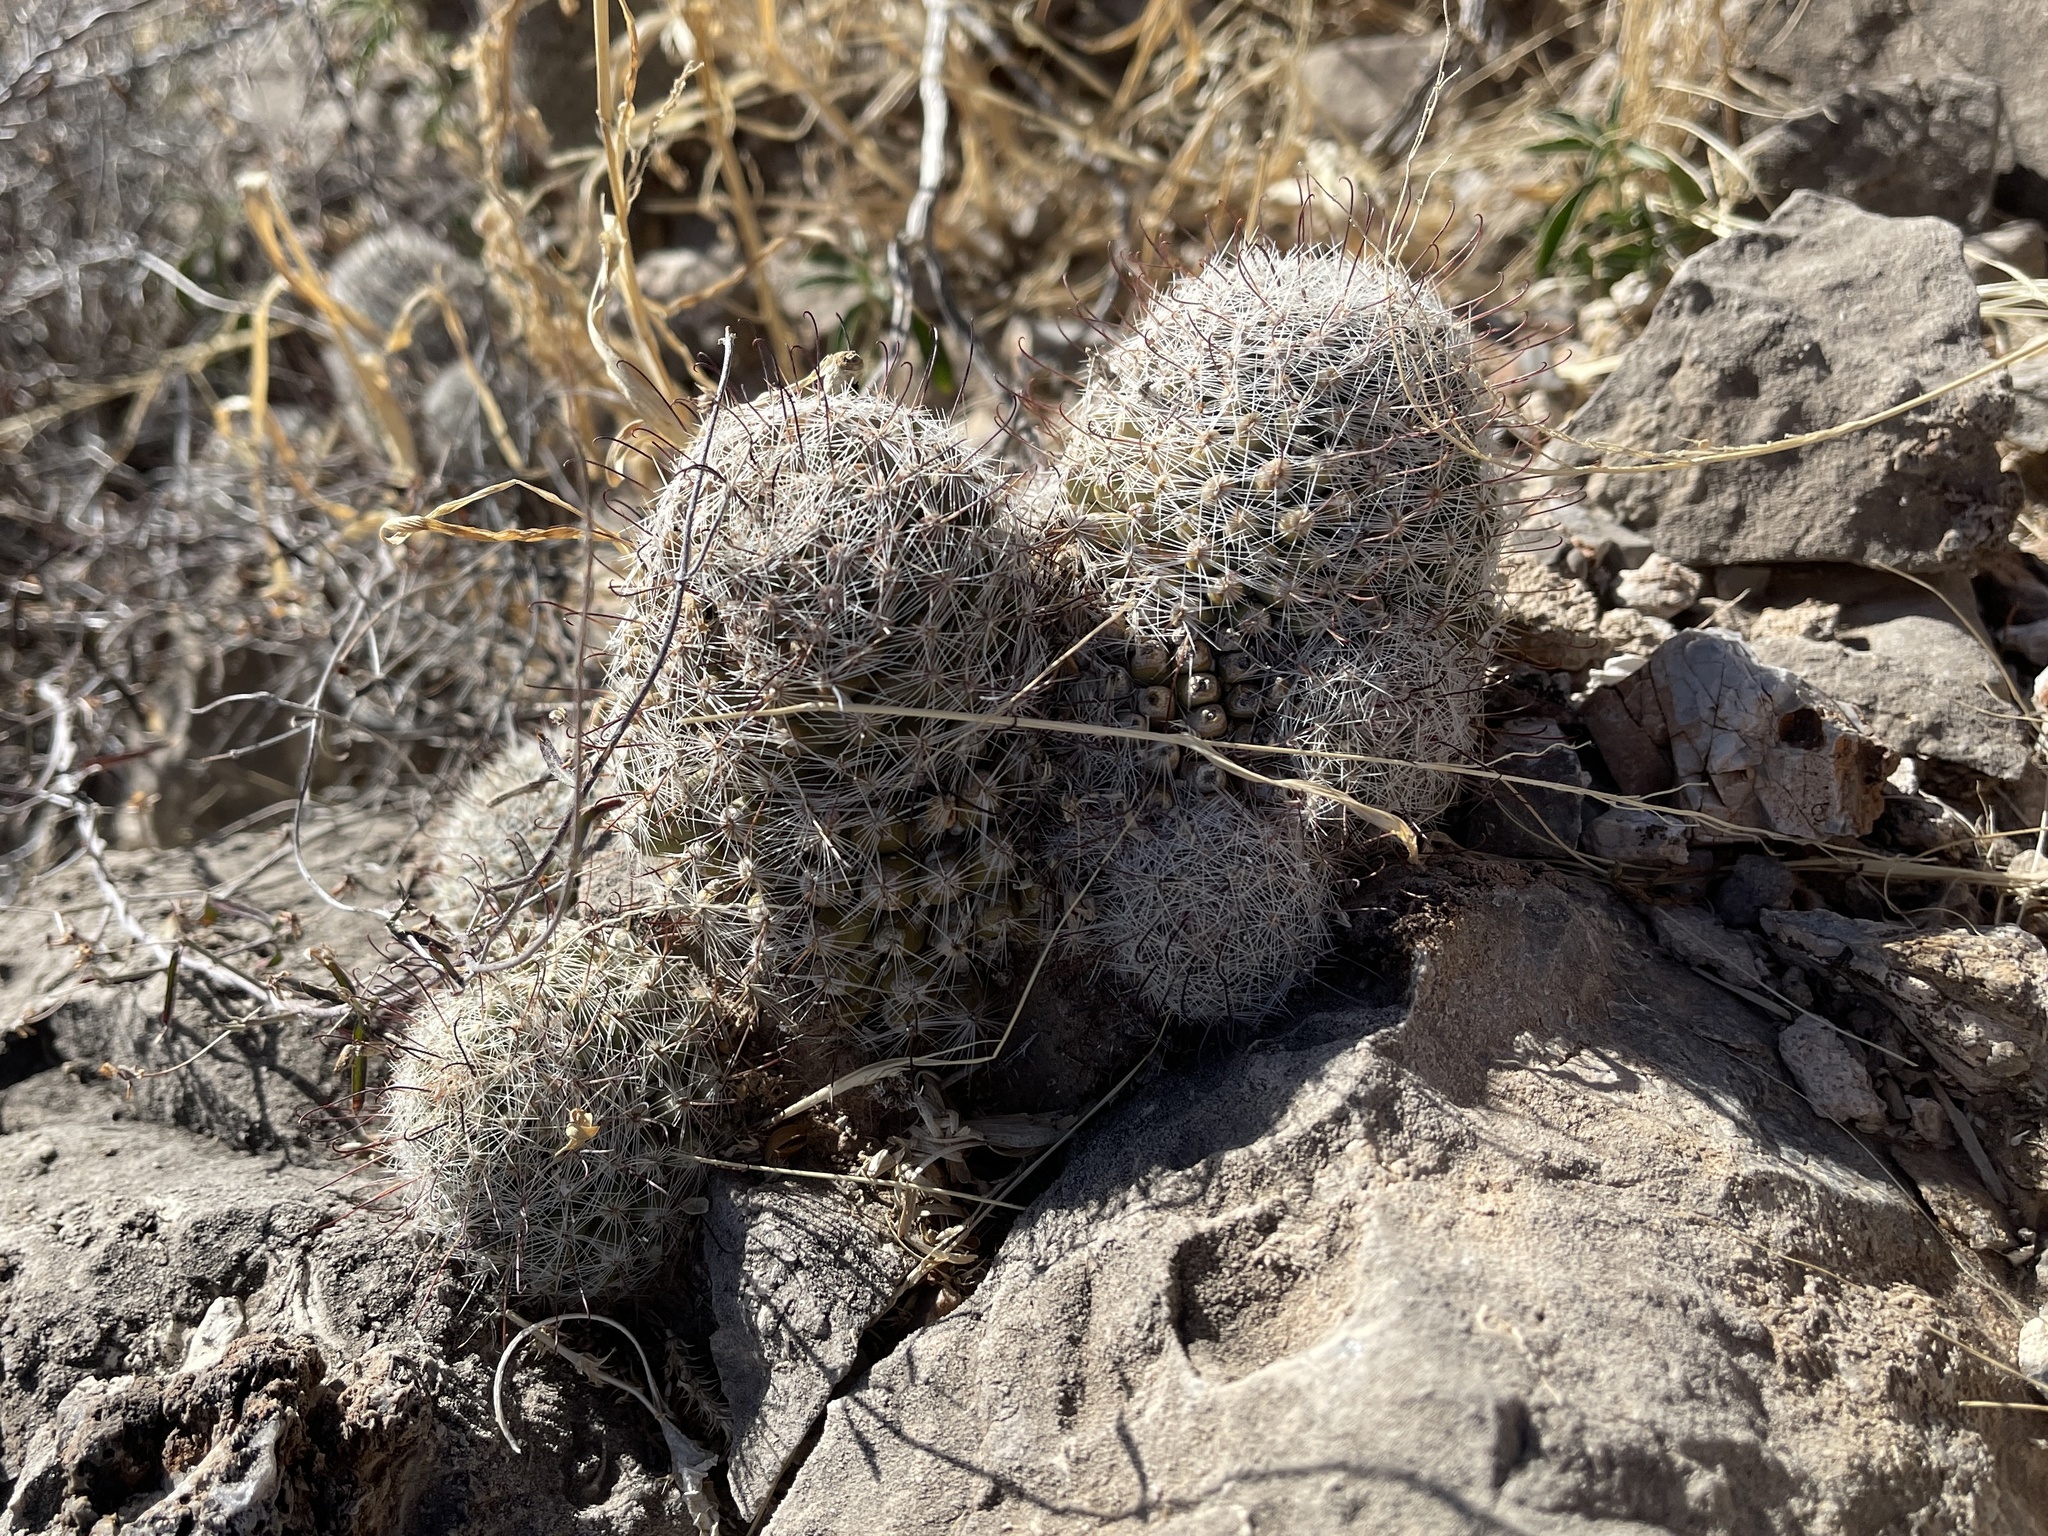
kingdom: Plantae
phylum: Tracheophyta
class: Magnoliopsida
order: Caryophyllales
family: Cactaceae
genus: Cochemiea
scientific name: Cochemiea grahamii
